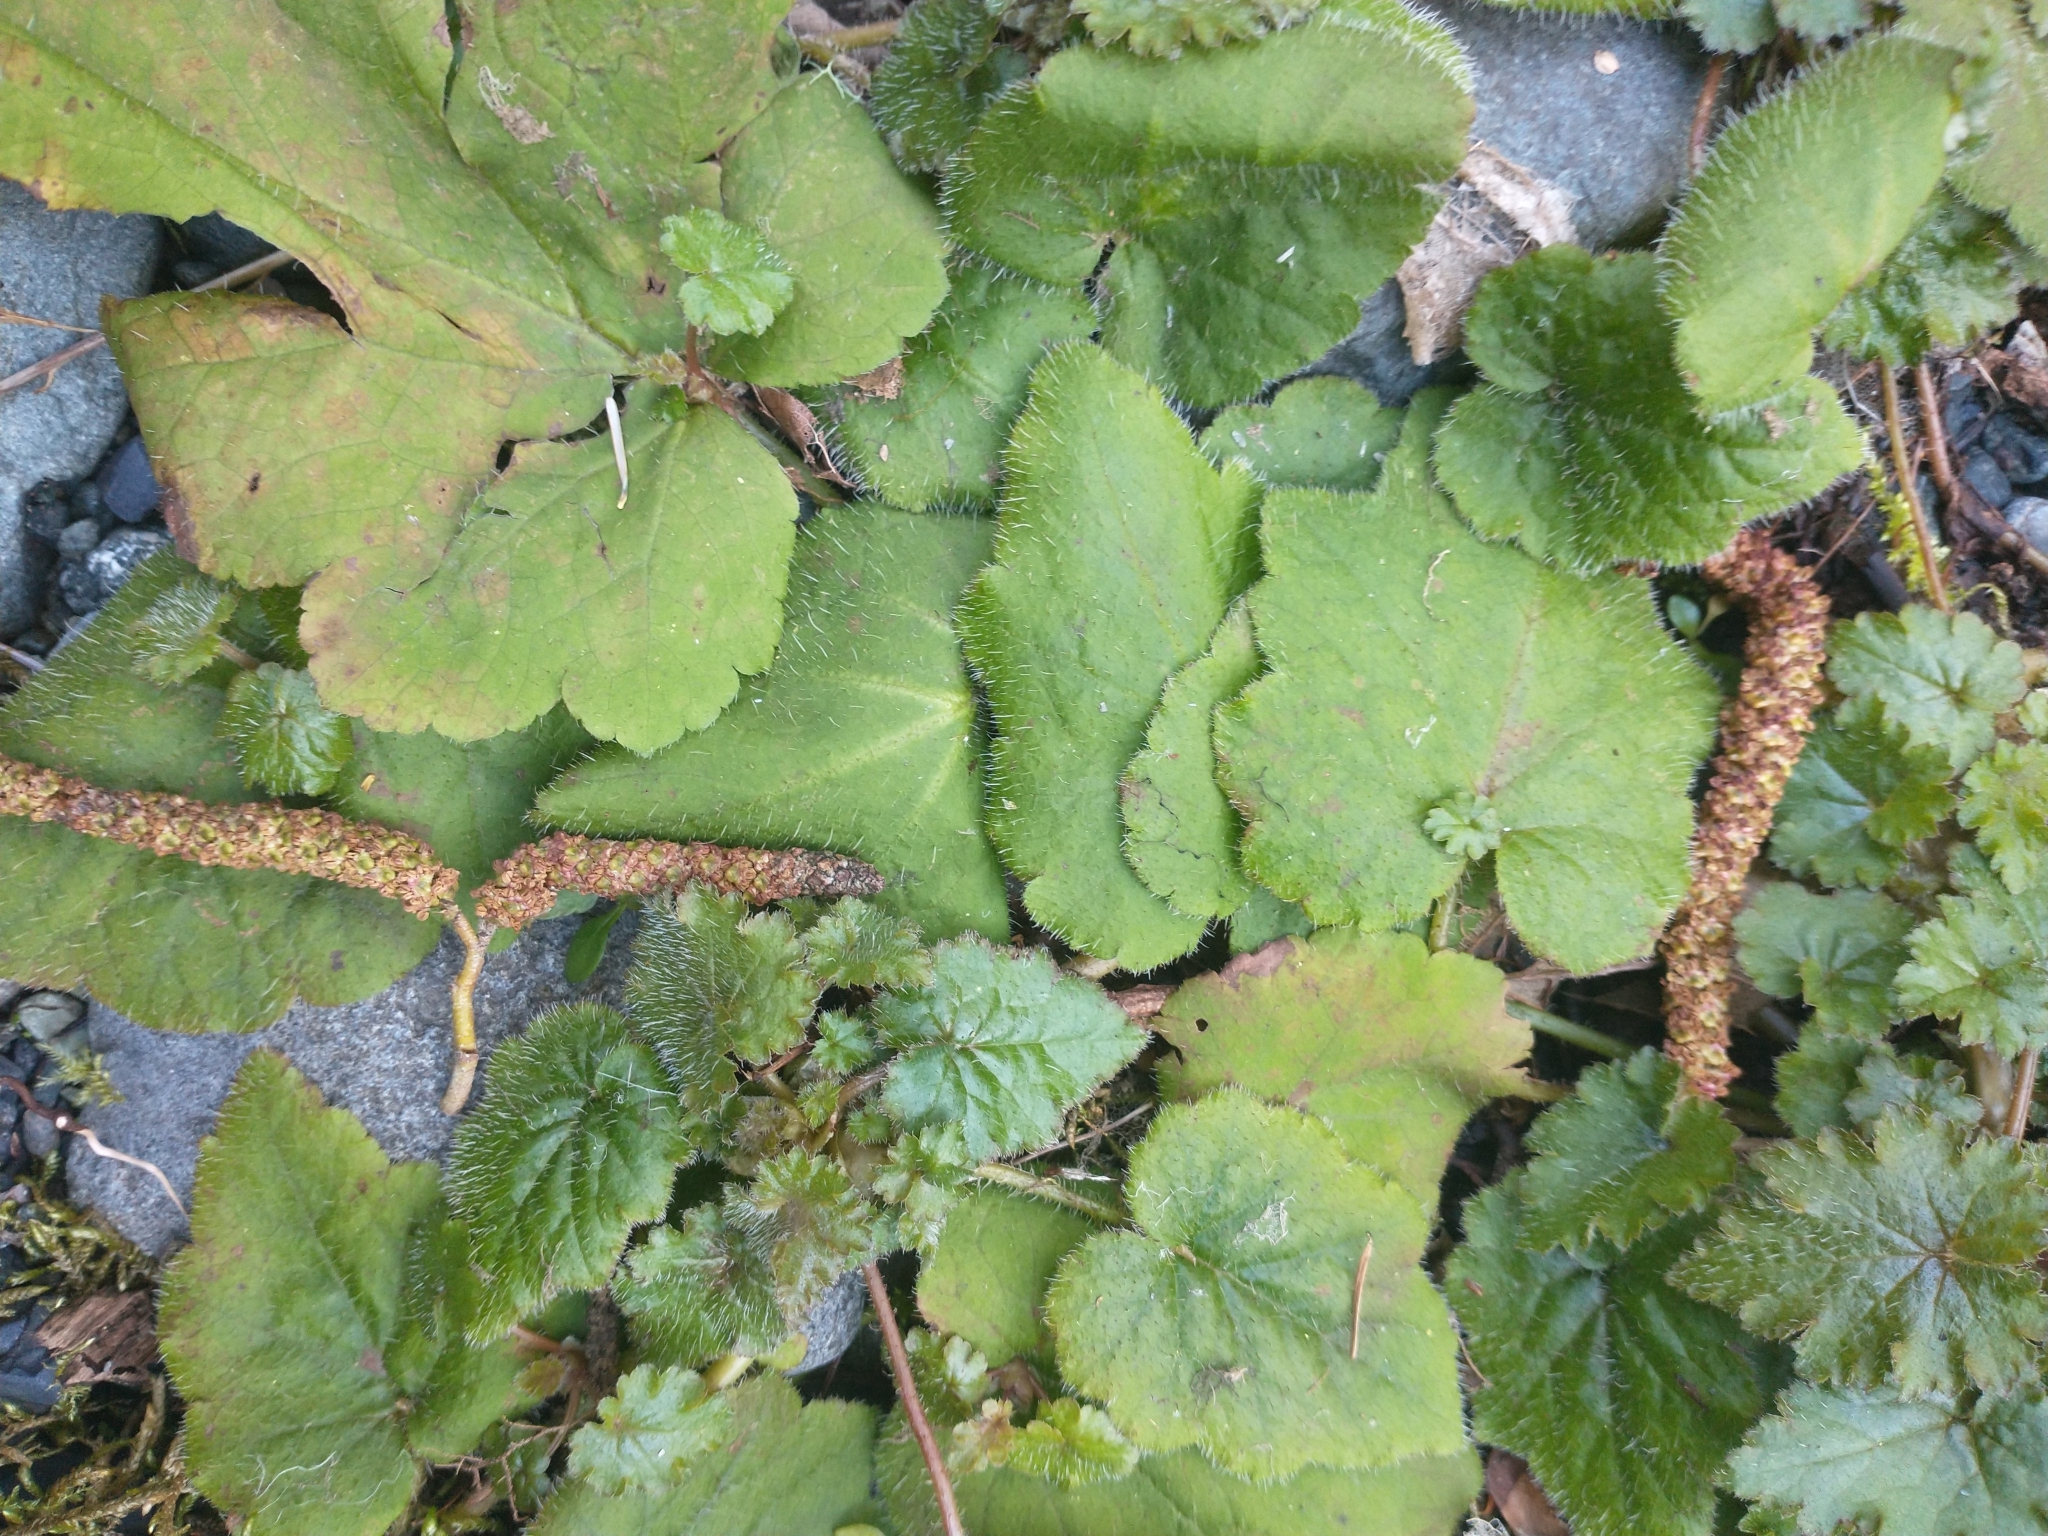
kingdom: Plantae
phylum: Tracheophyta
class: Magnoliopsida
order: Saxifragales
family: Saxifragaceae
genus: Tolmiea
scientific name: Tolmiea menziesii
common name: Pick-a-back-plant
